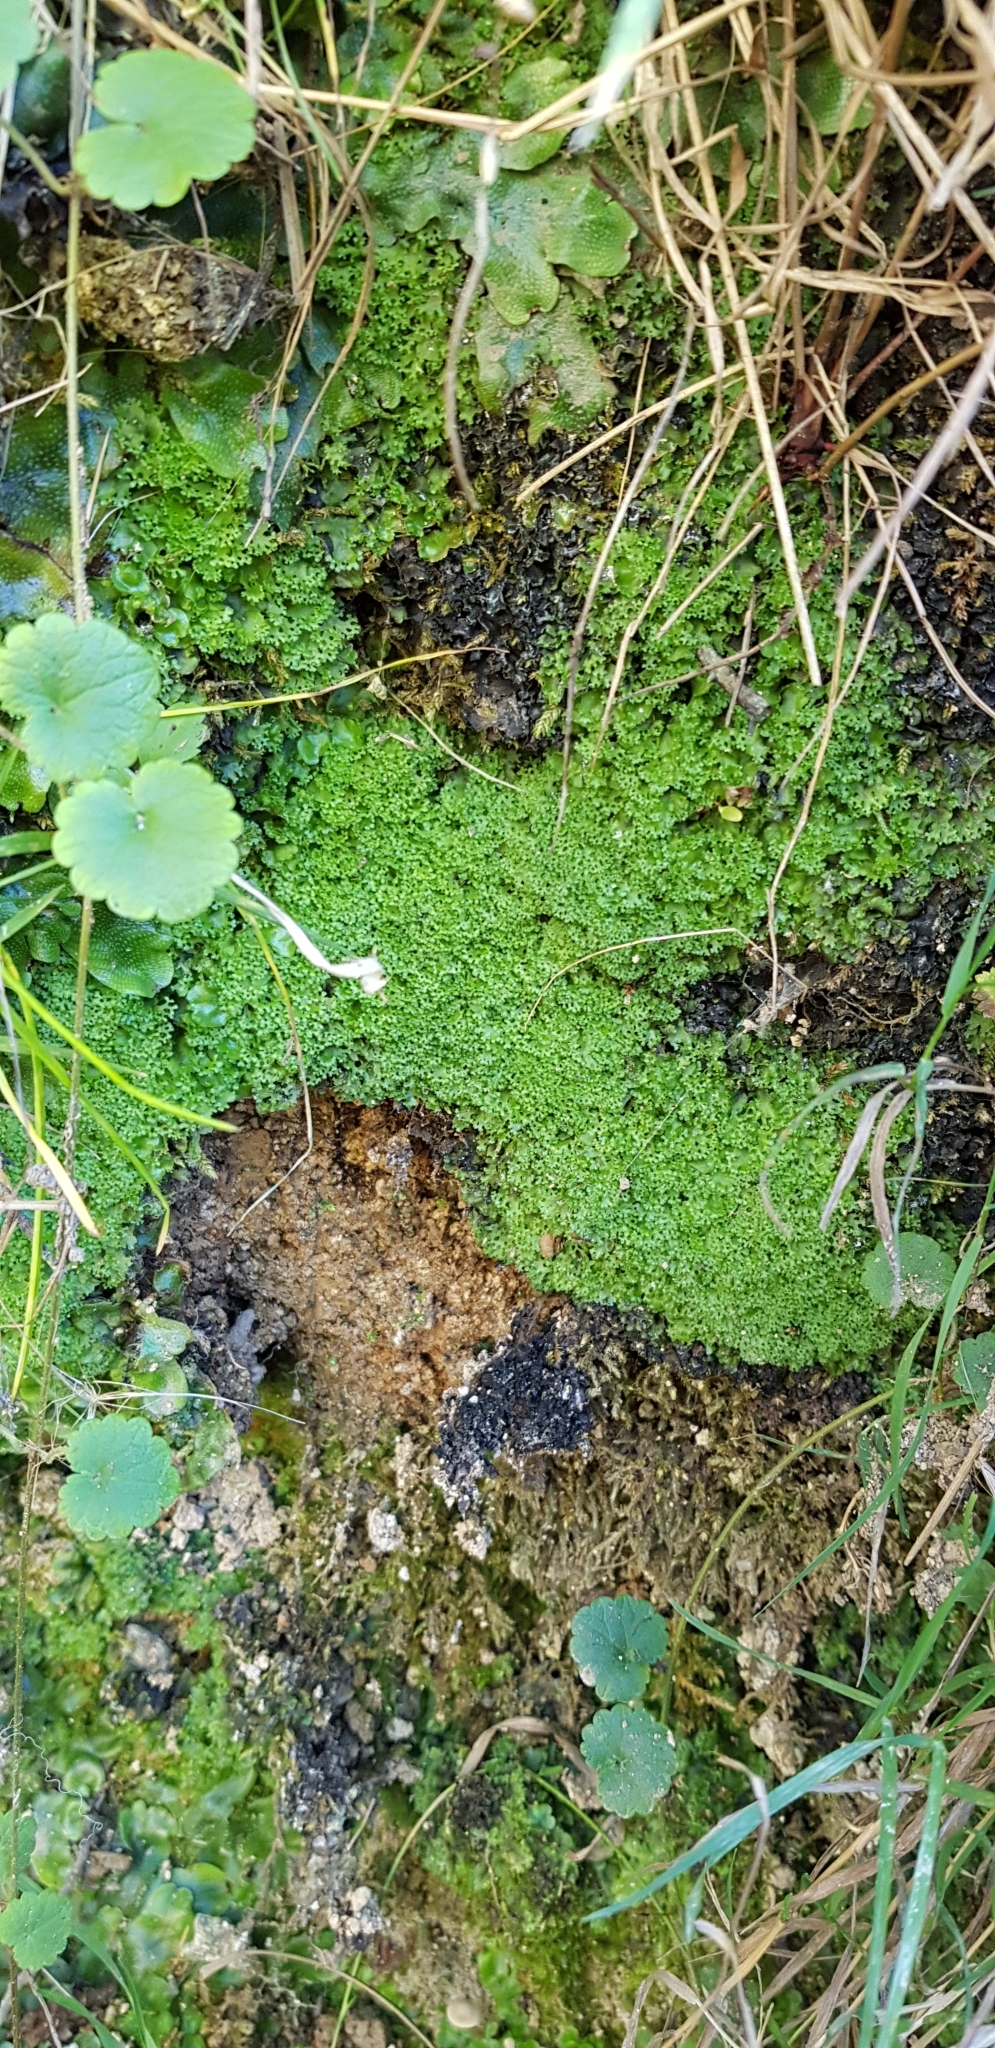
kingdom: Plantae
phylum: Marchantiophyta
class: Jungermanniopsida
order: Pelliales
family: Pelliaceae
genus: Apopellia
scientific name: Apopellia endiviifolia
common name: Endive pellia
